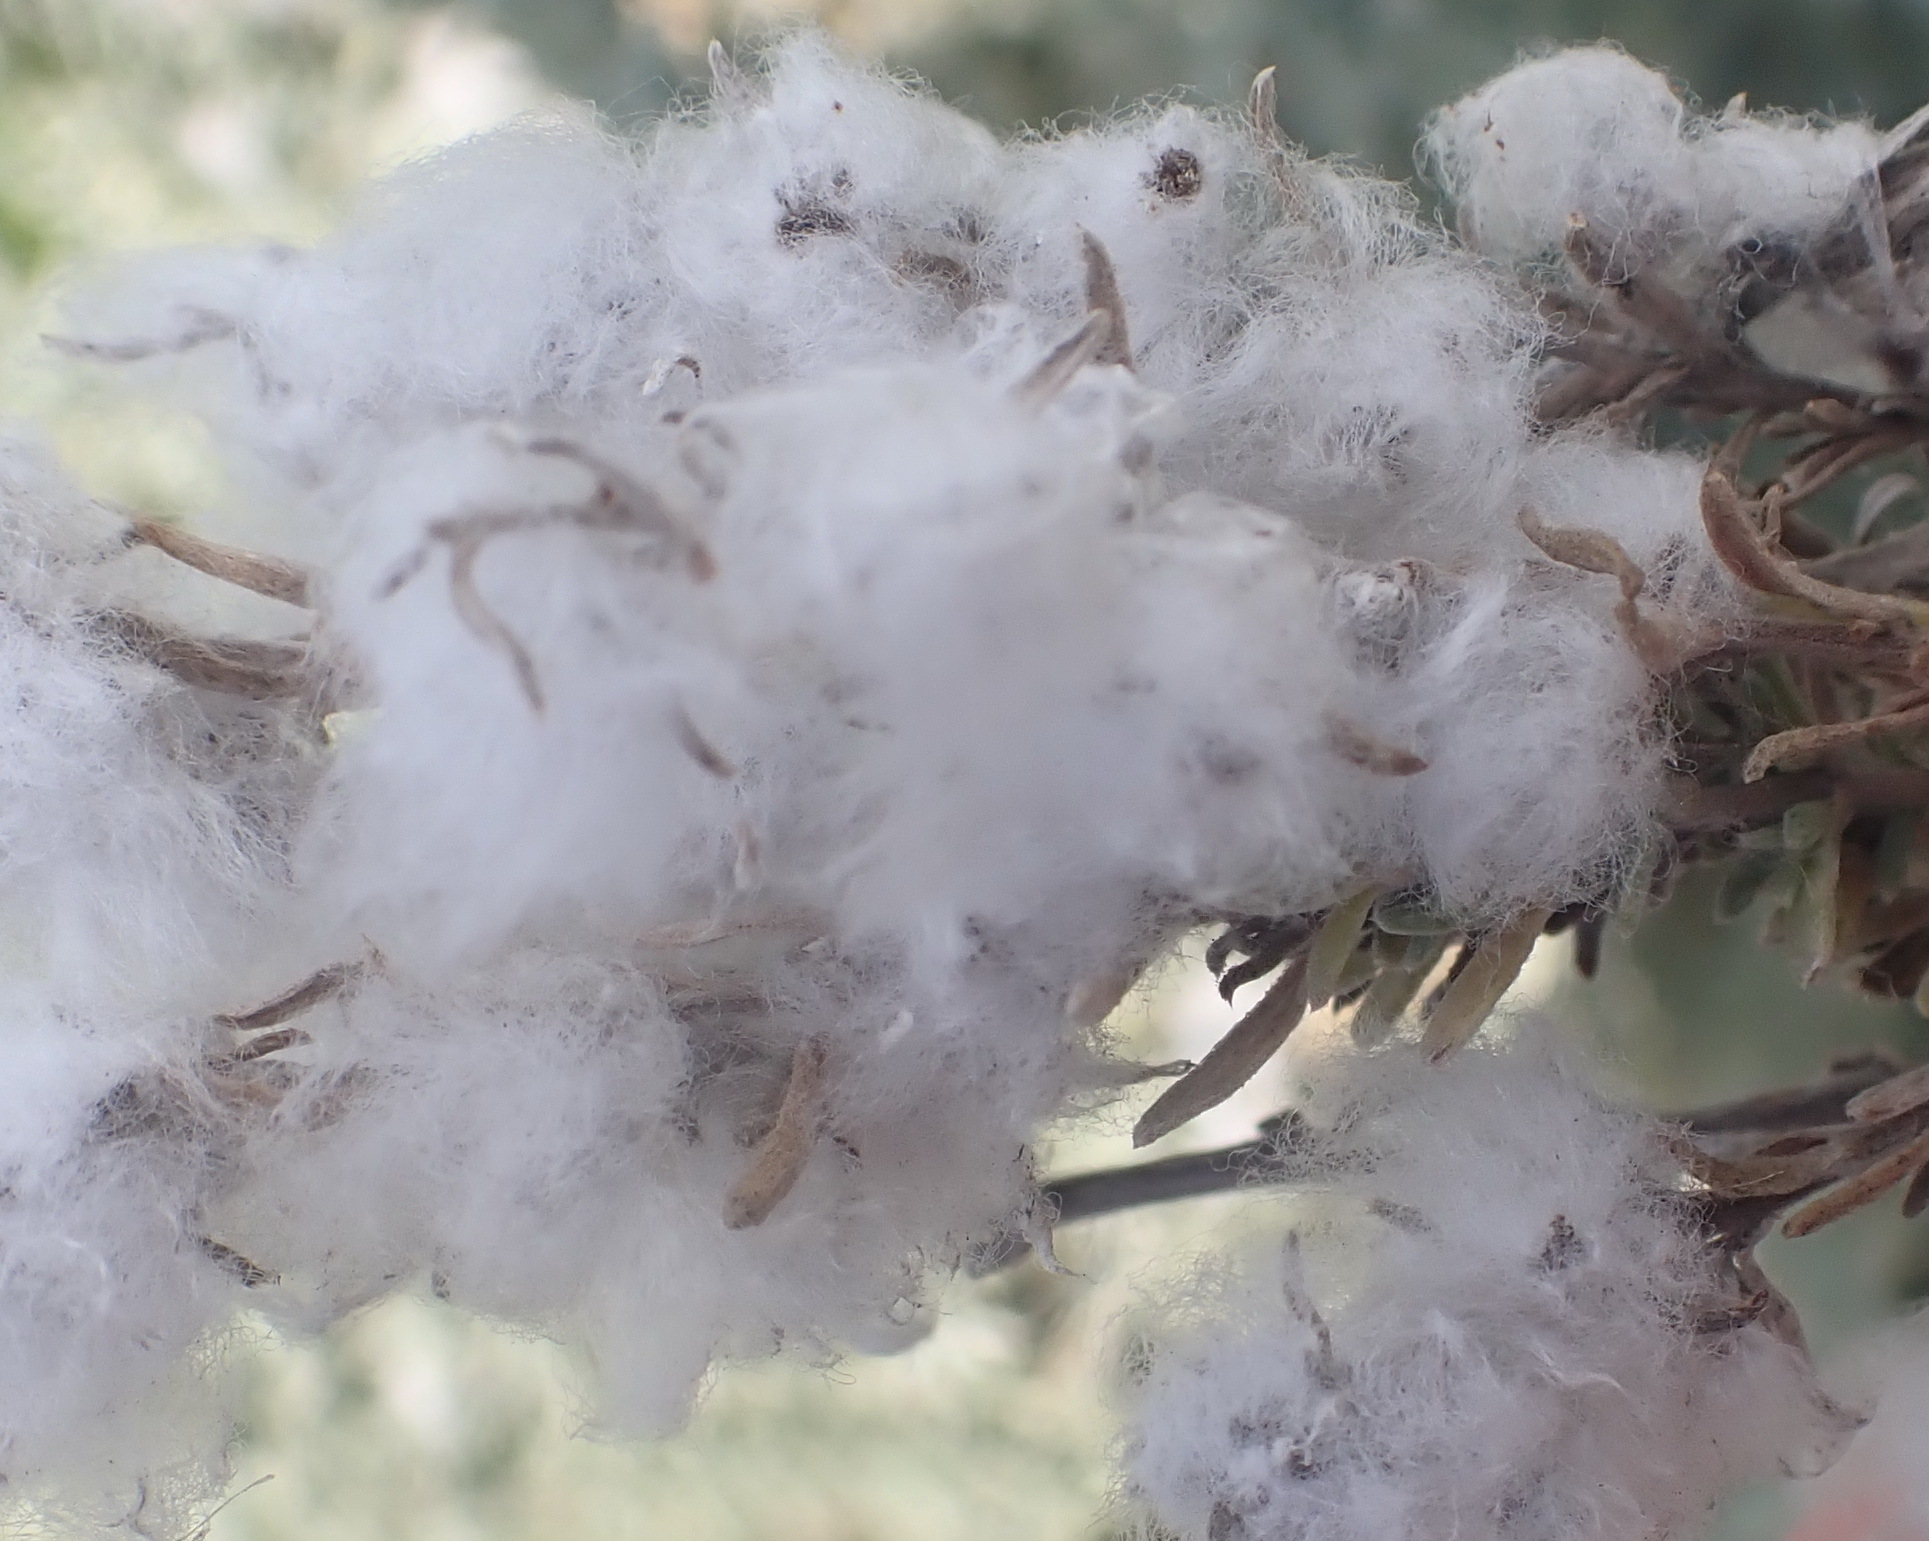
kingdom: Plantae
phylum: Tracheophyta
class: Magnoliopsida
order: Asterales
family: Asteraceae
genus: Eriocephalus
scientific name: Eriocephalus racemosus
